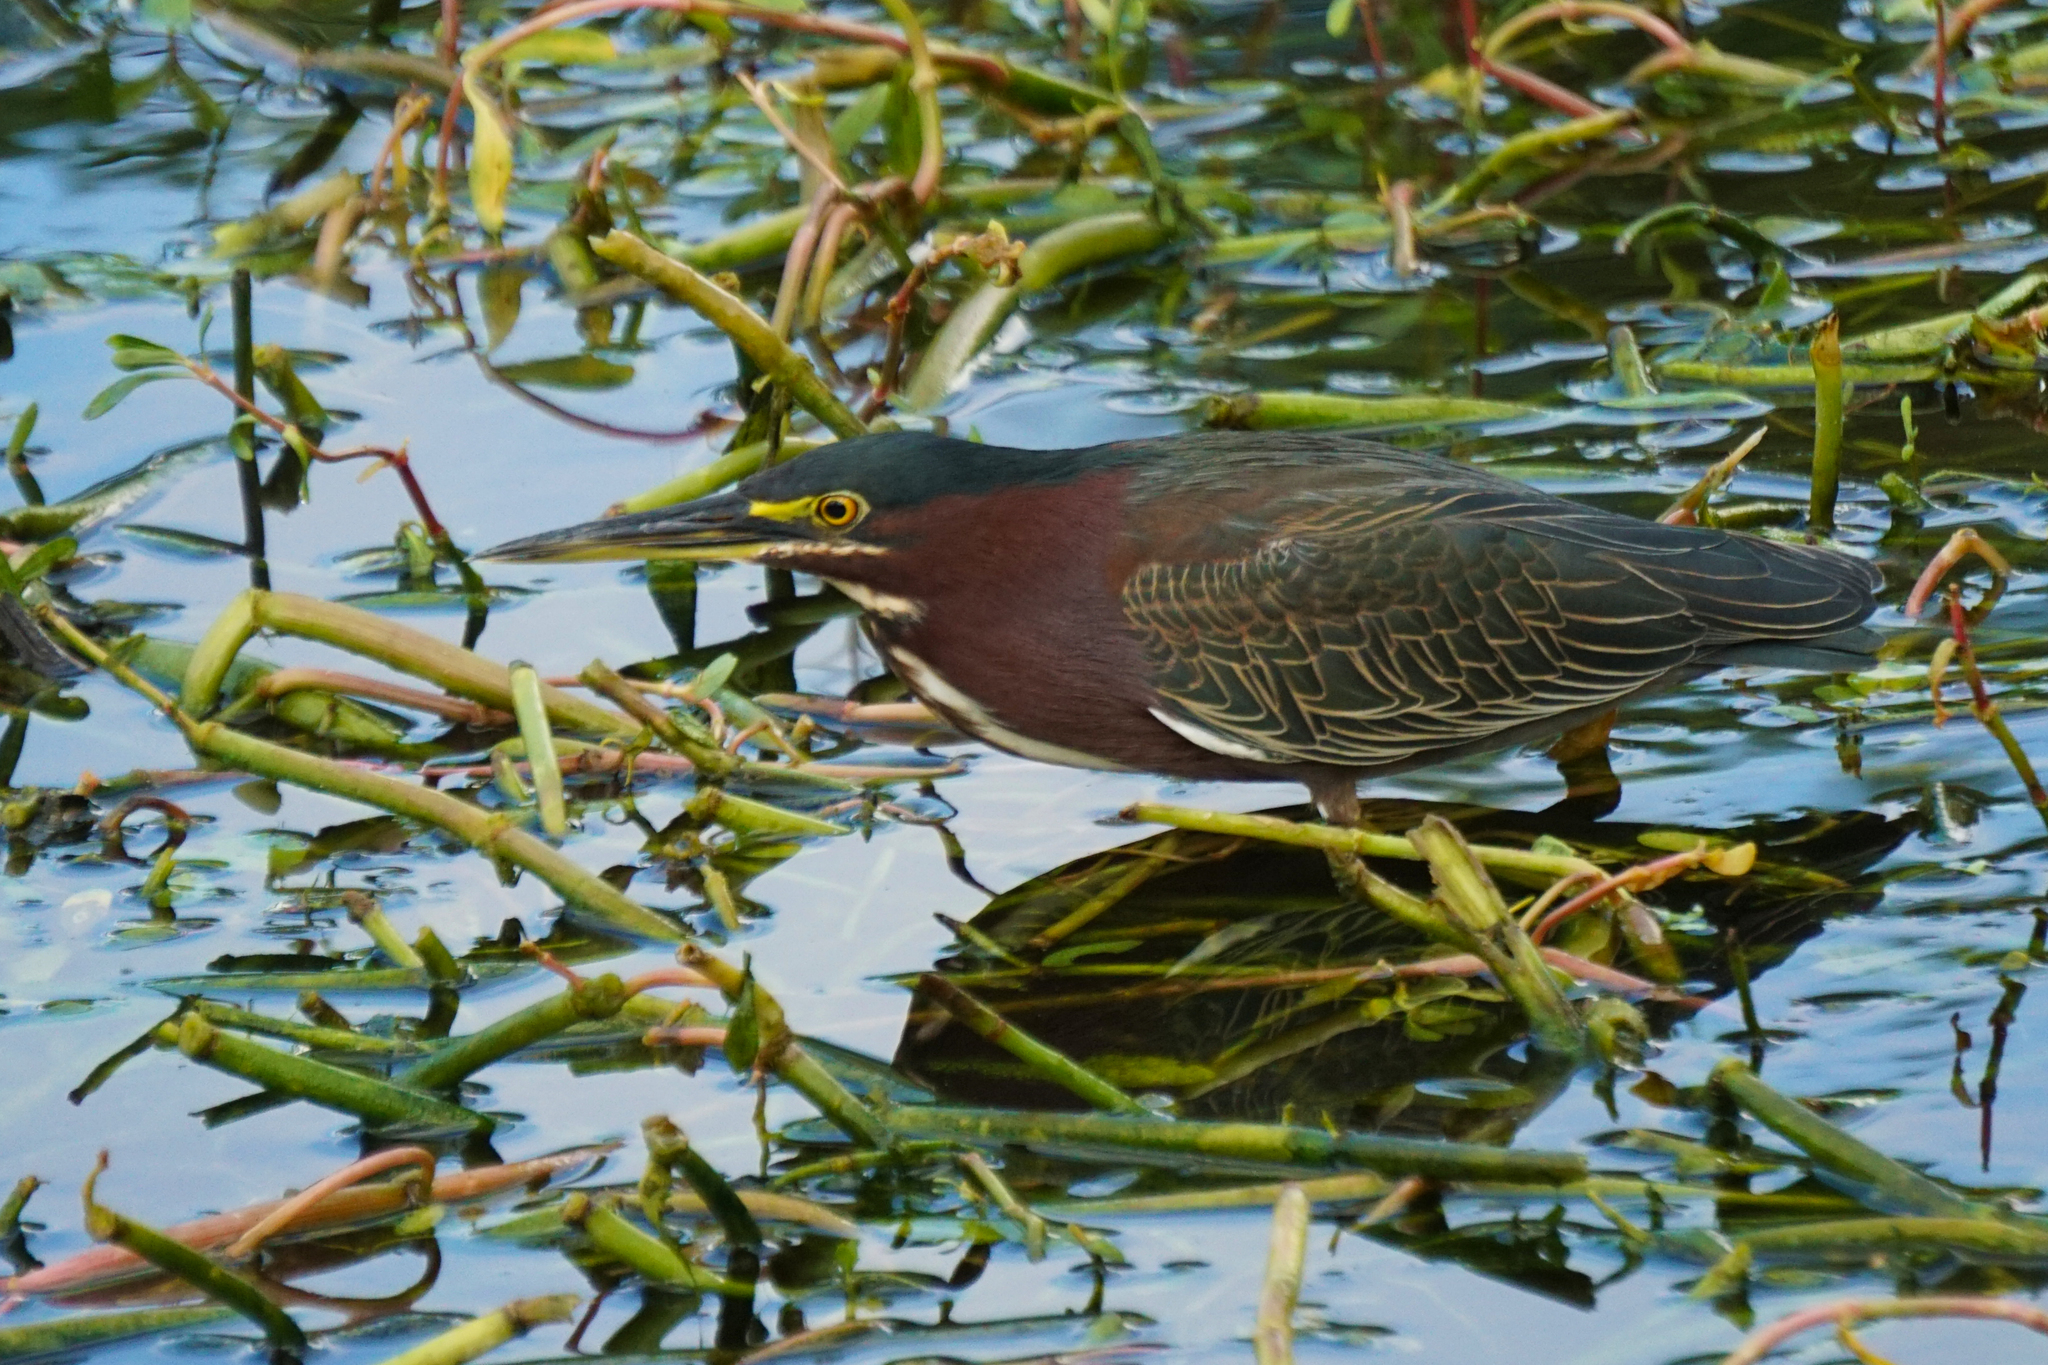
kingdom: Animalia
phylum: Chordata
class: Aves
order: Pelecaniformes
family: Ardeidae
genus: Butorides
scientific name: Butorides virescens
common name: Green heron
